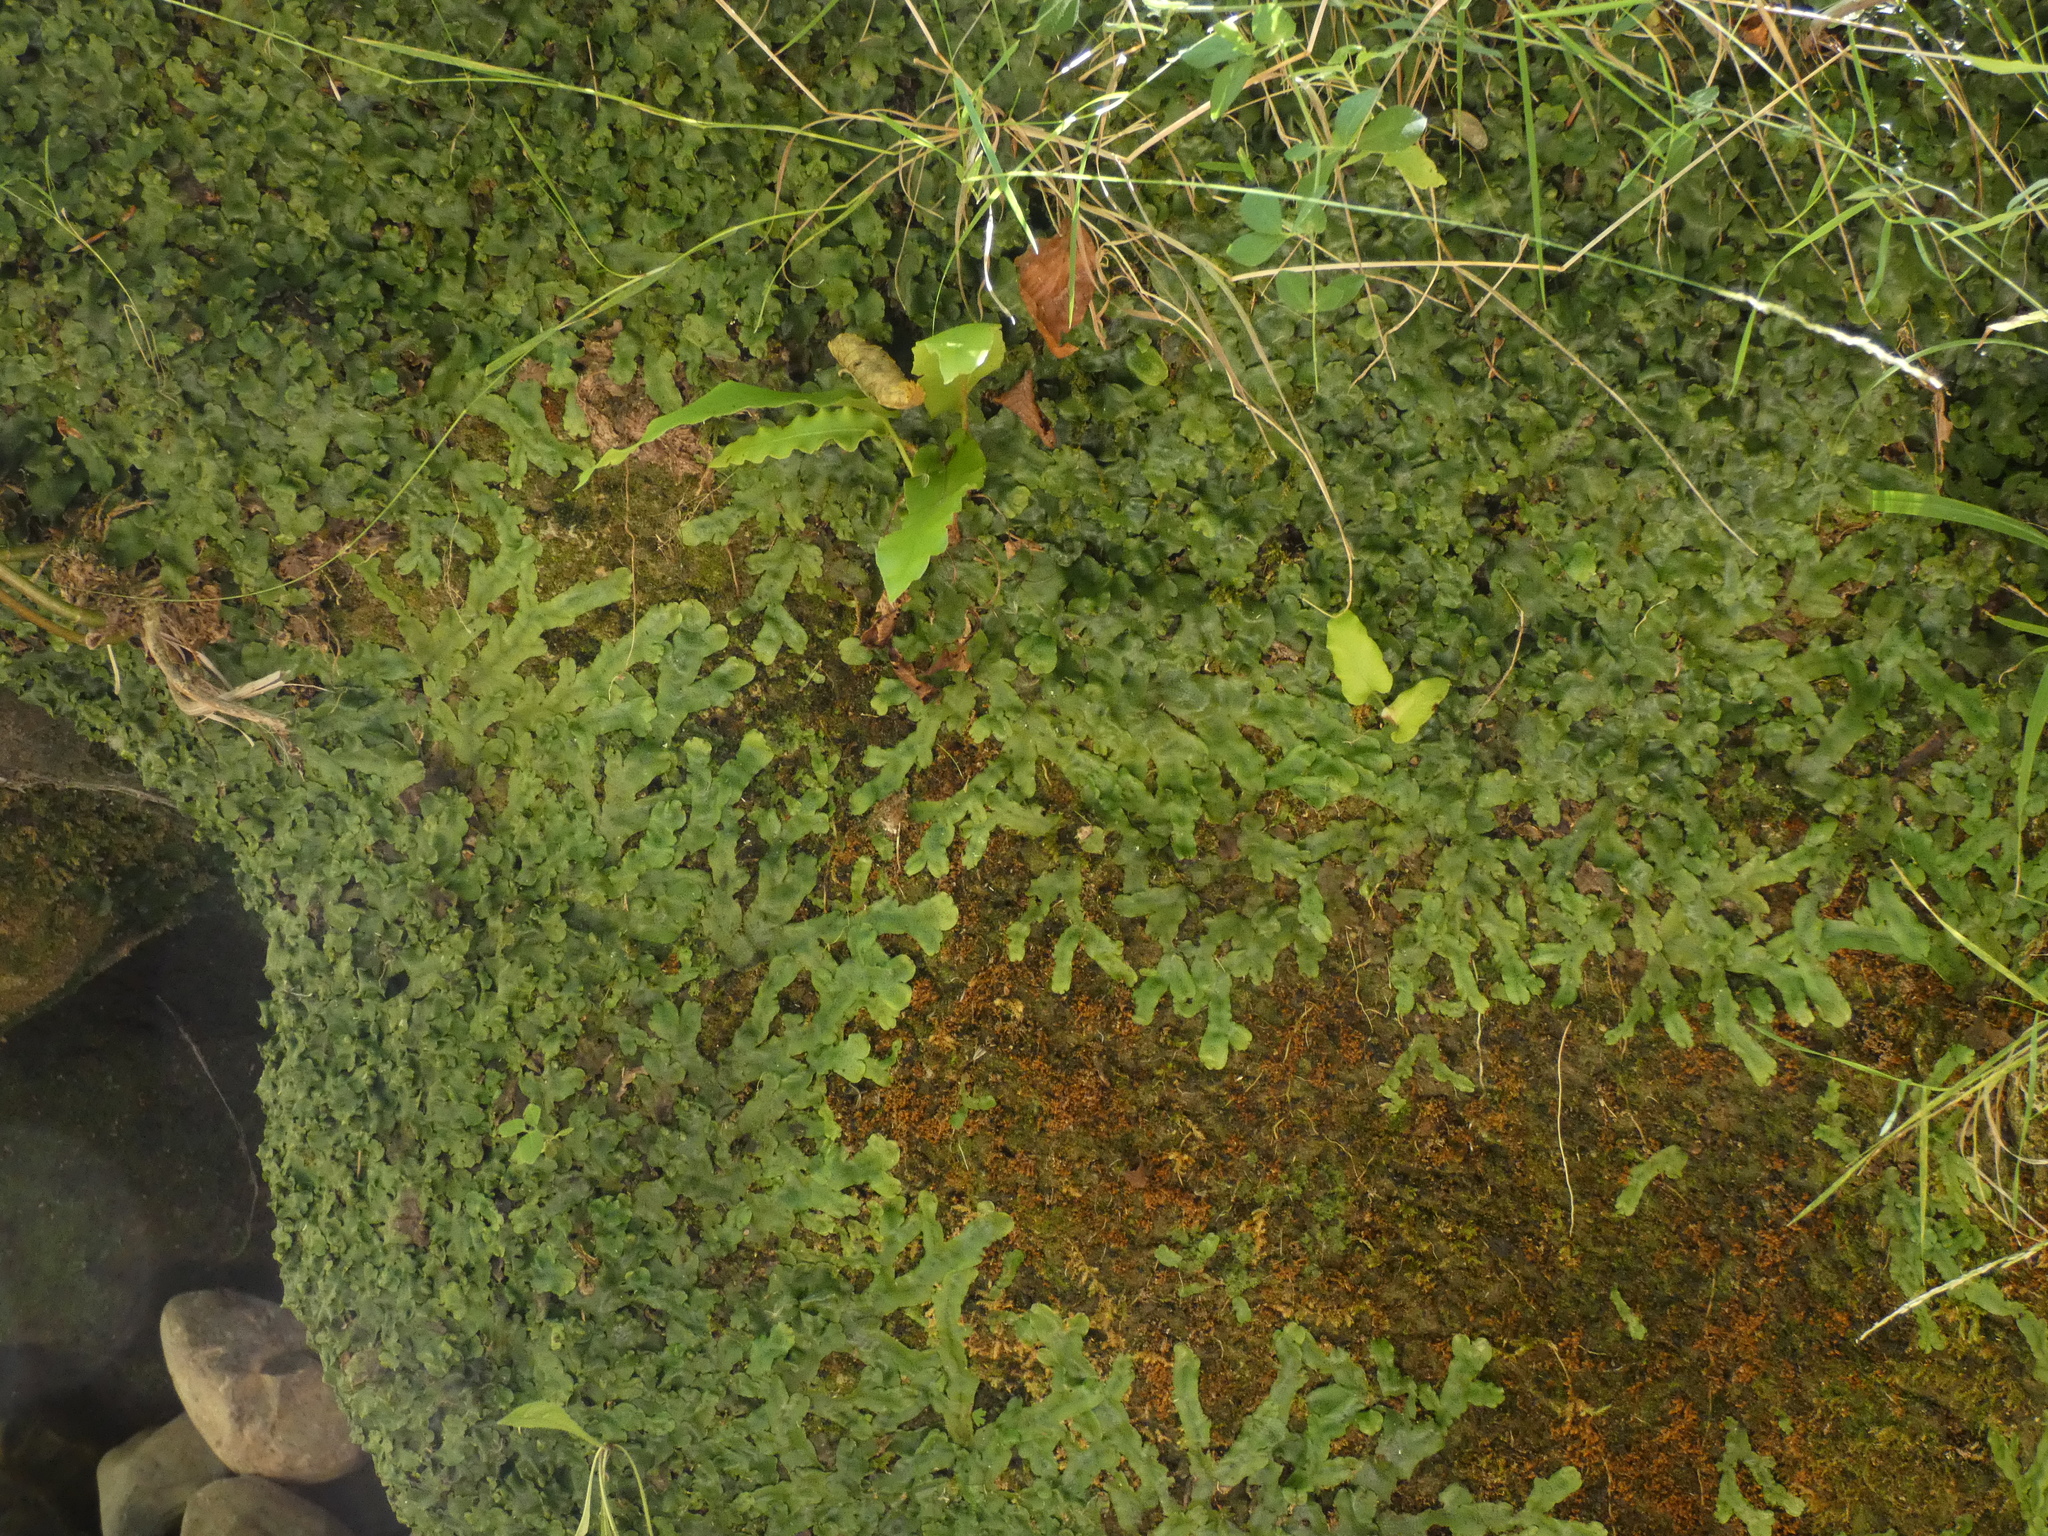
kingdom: Plantae
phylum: Marchantiophyta
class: Marchantiopsida
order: Marchantiales
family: Conocephalaceae
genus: Conocephalum
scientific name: Conocephalum salebrosum
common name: Cat-tongue liverwort
